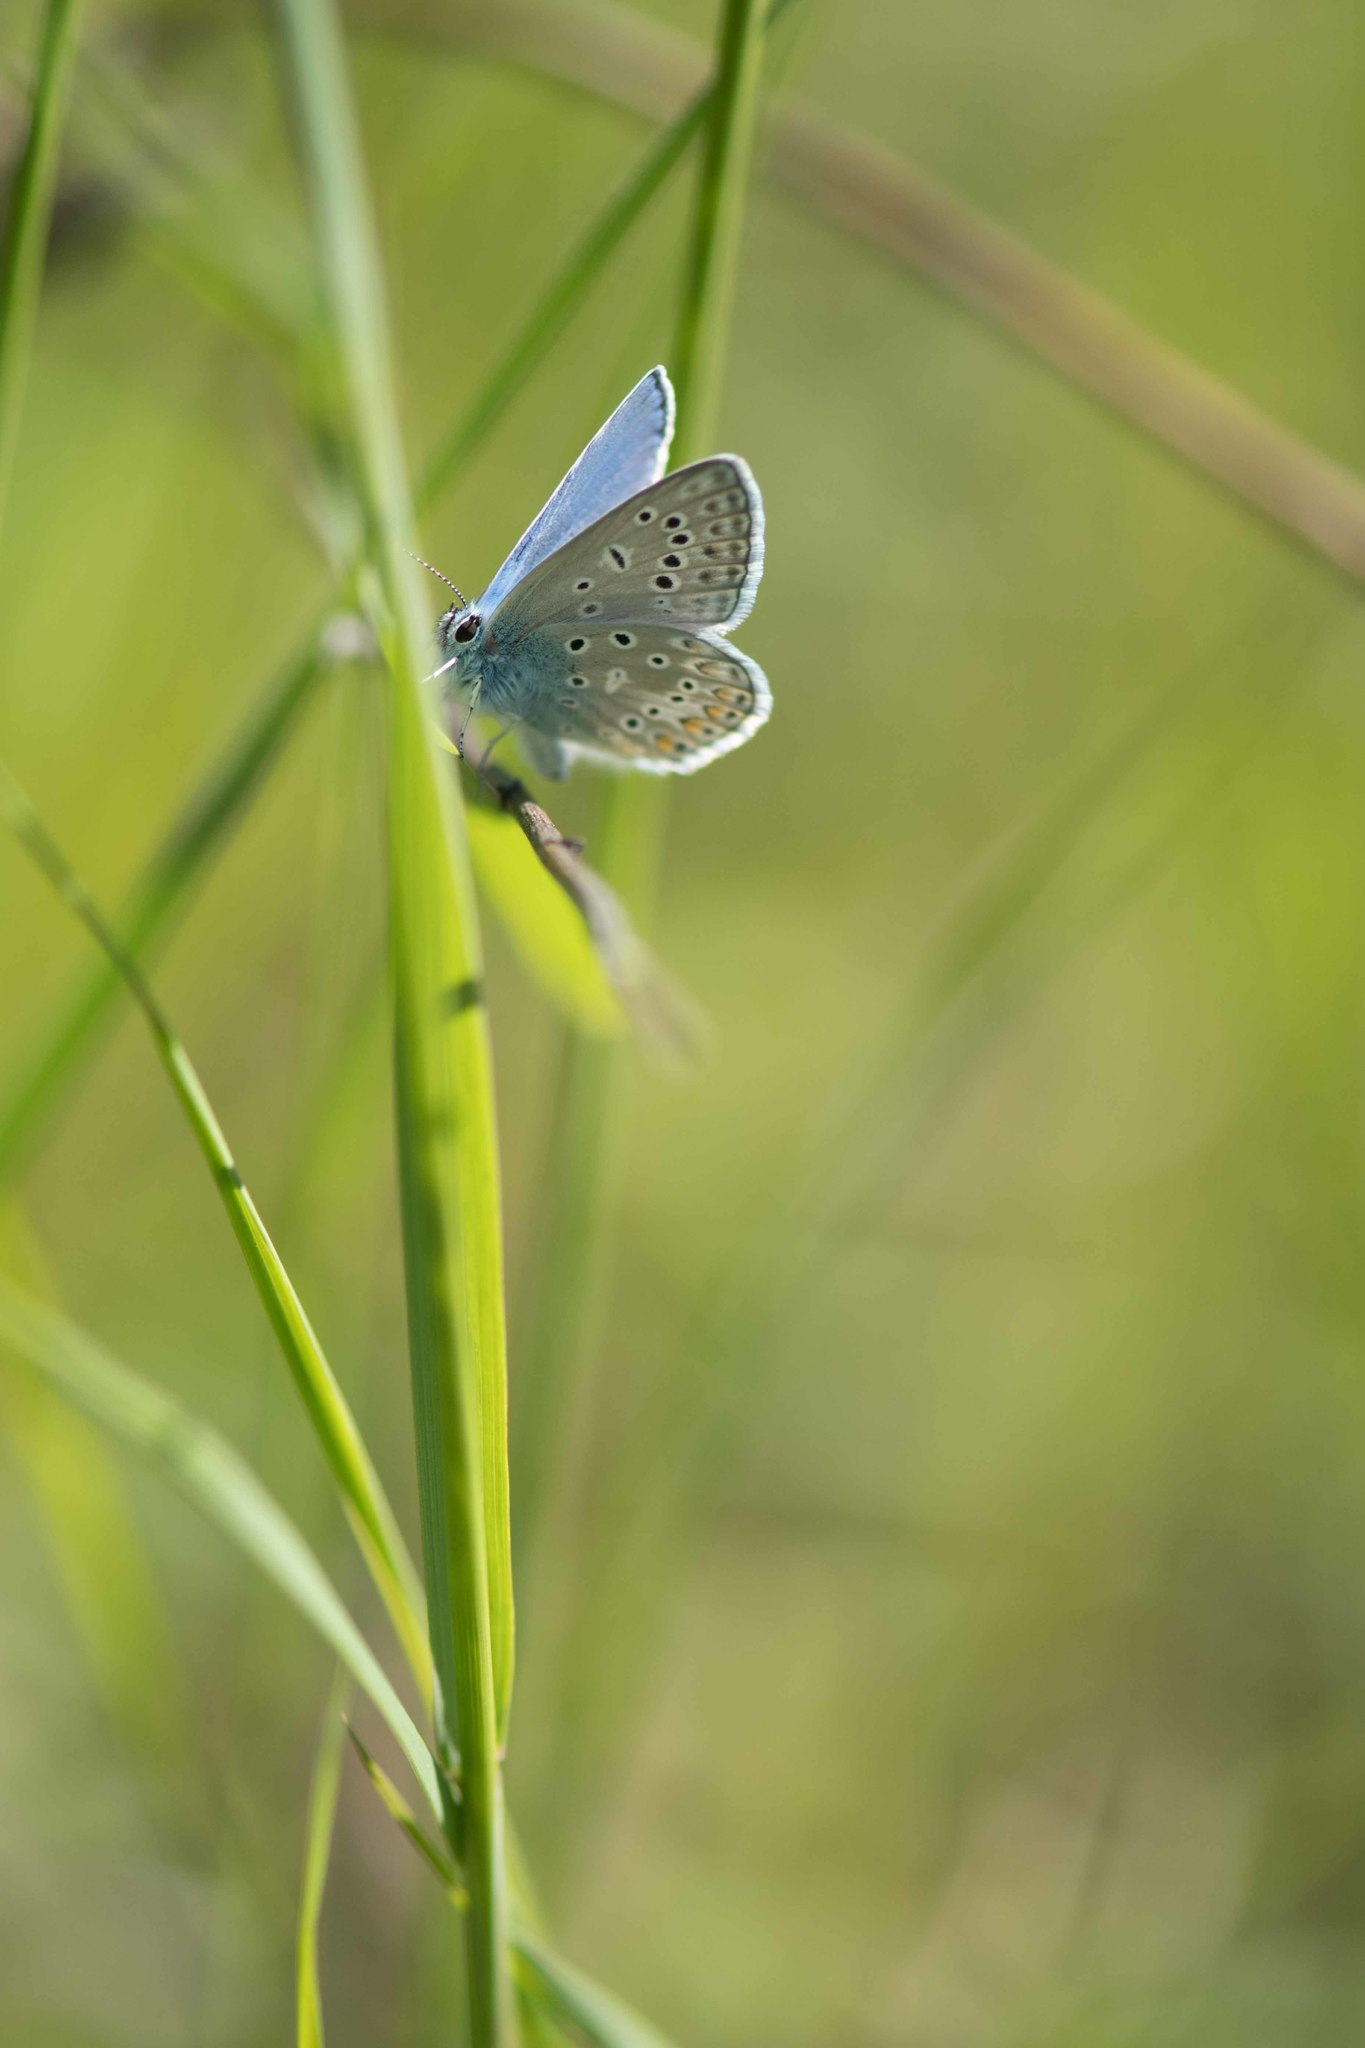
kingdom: Animalia
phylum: Arthropoda
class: Insecta
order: Lepidoptera
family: Lycaenidae
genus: Polyommatus
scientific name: Polyommatus icarus
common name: Common blue
